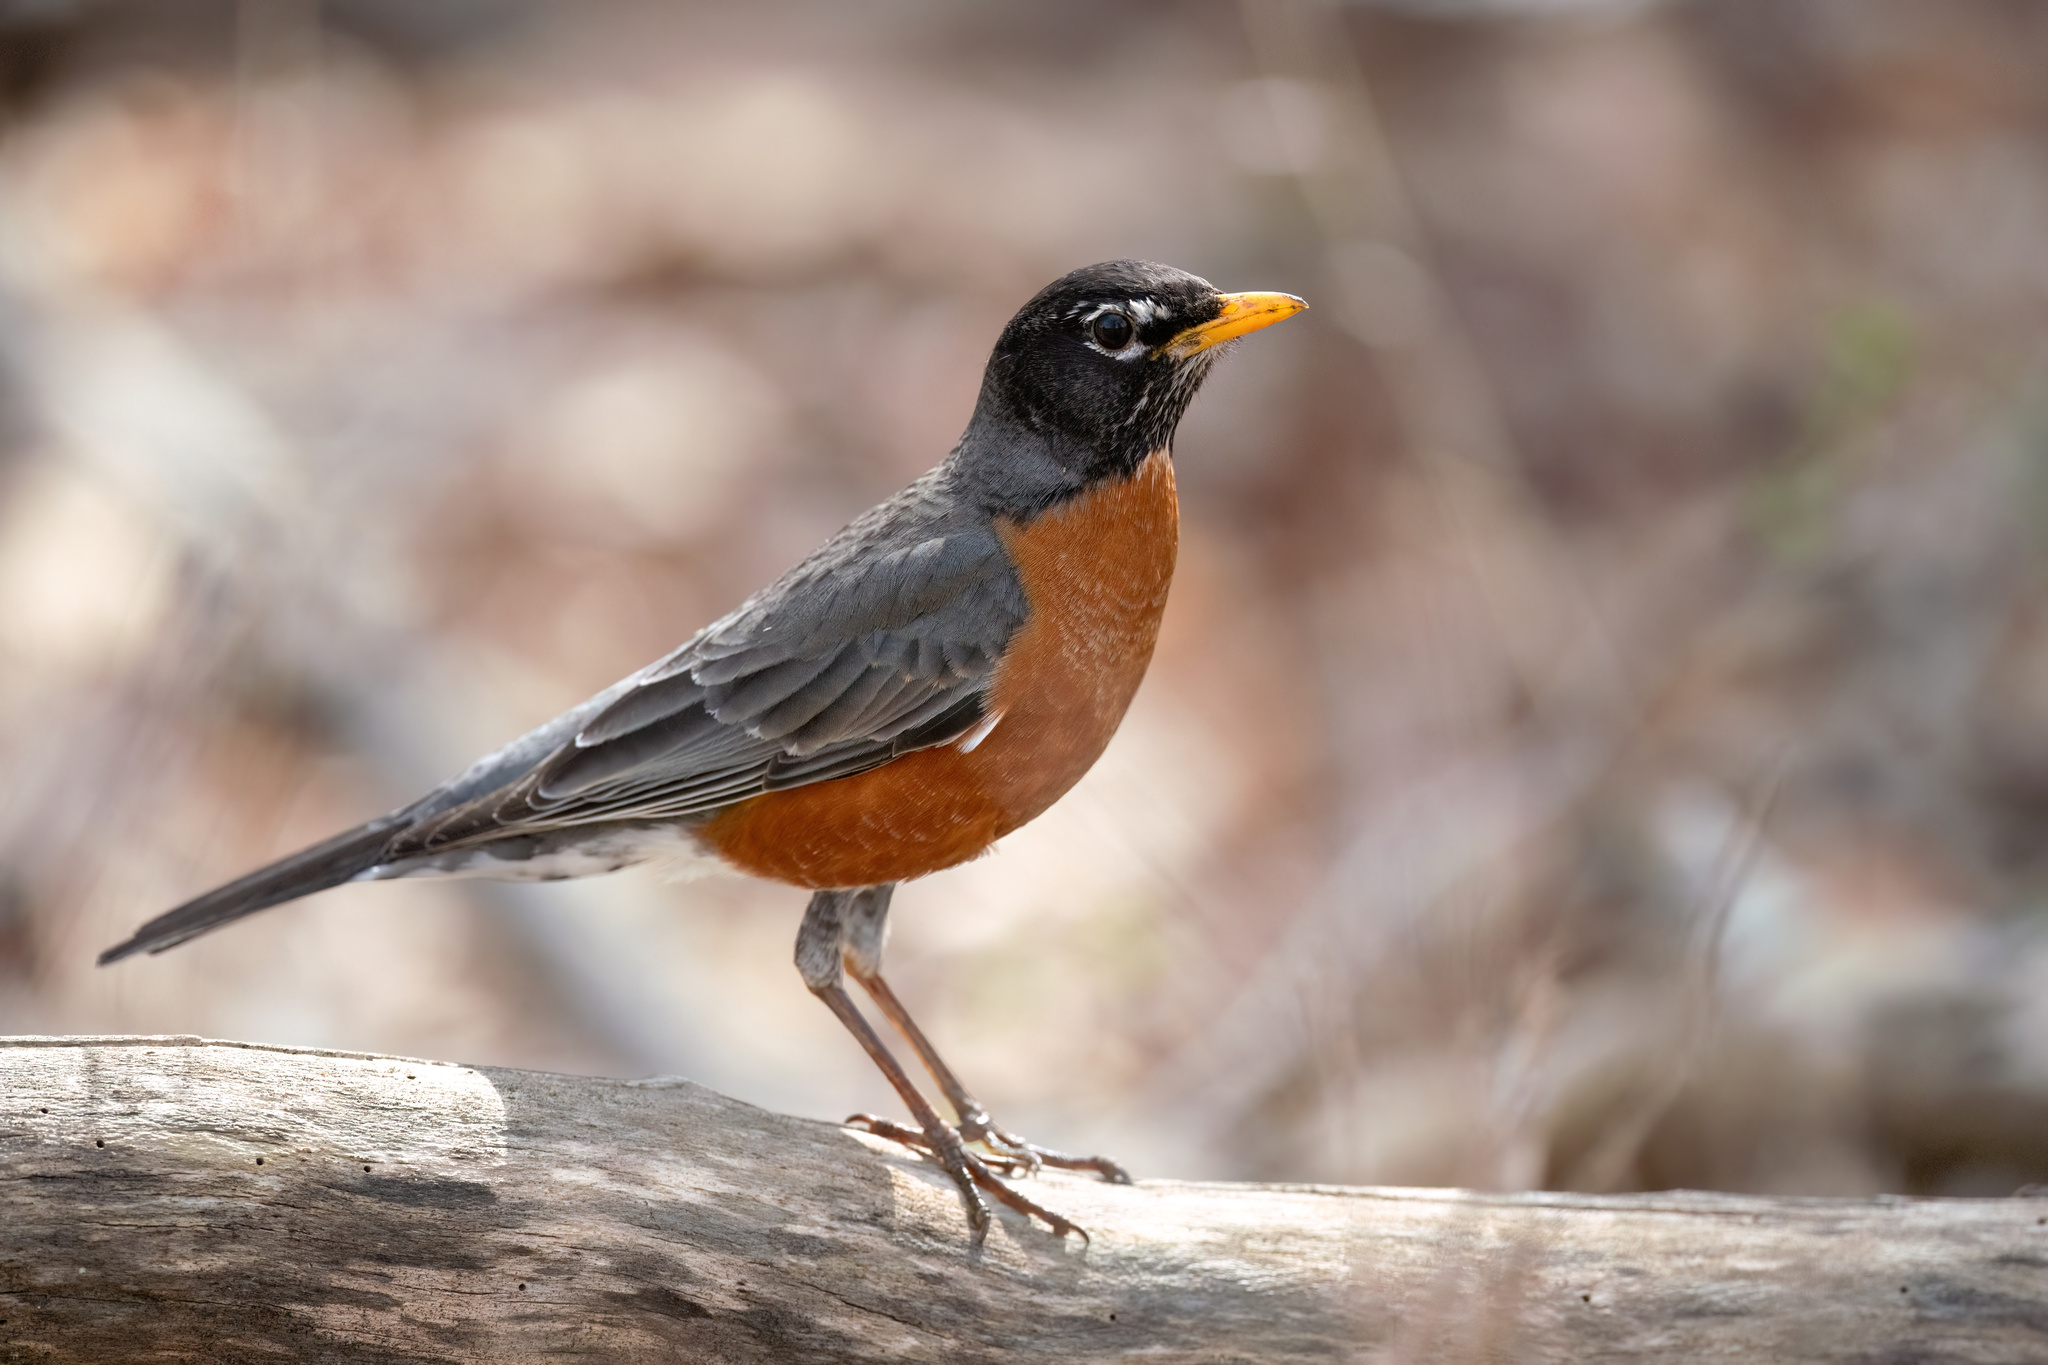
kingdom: Animalia
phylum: Chordata
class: Aves
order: Passeriformes
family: Turdidae
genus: Turdus
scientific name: Turdus migratorius
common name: American robin
